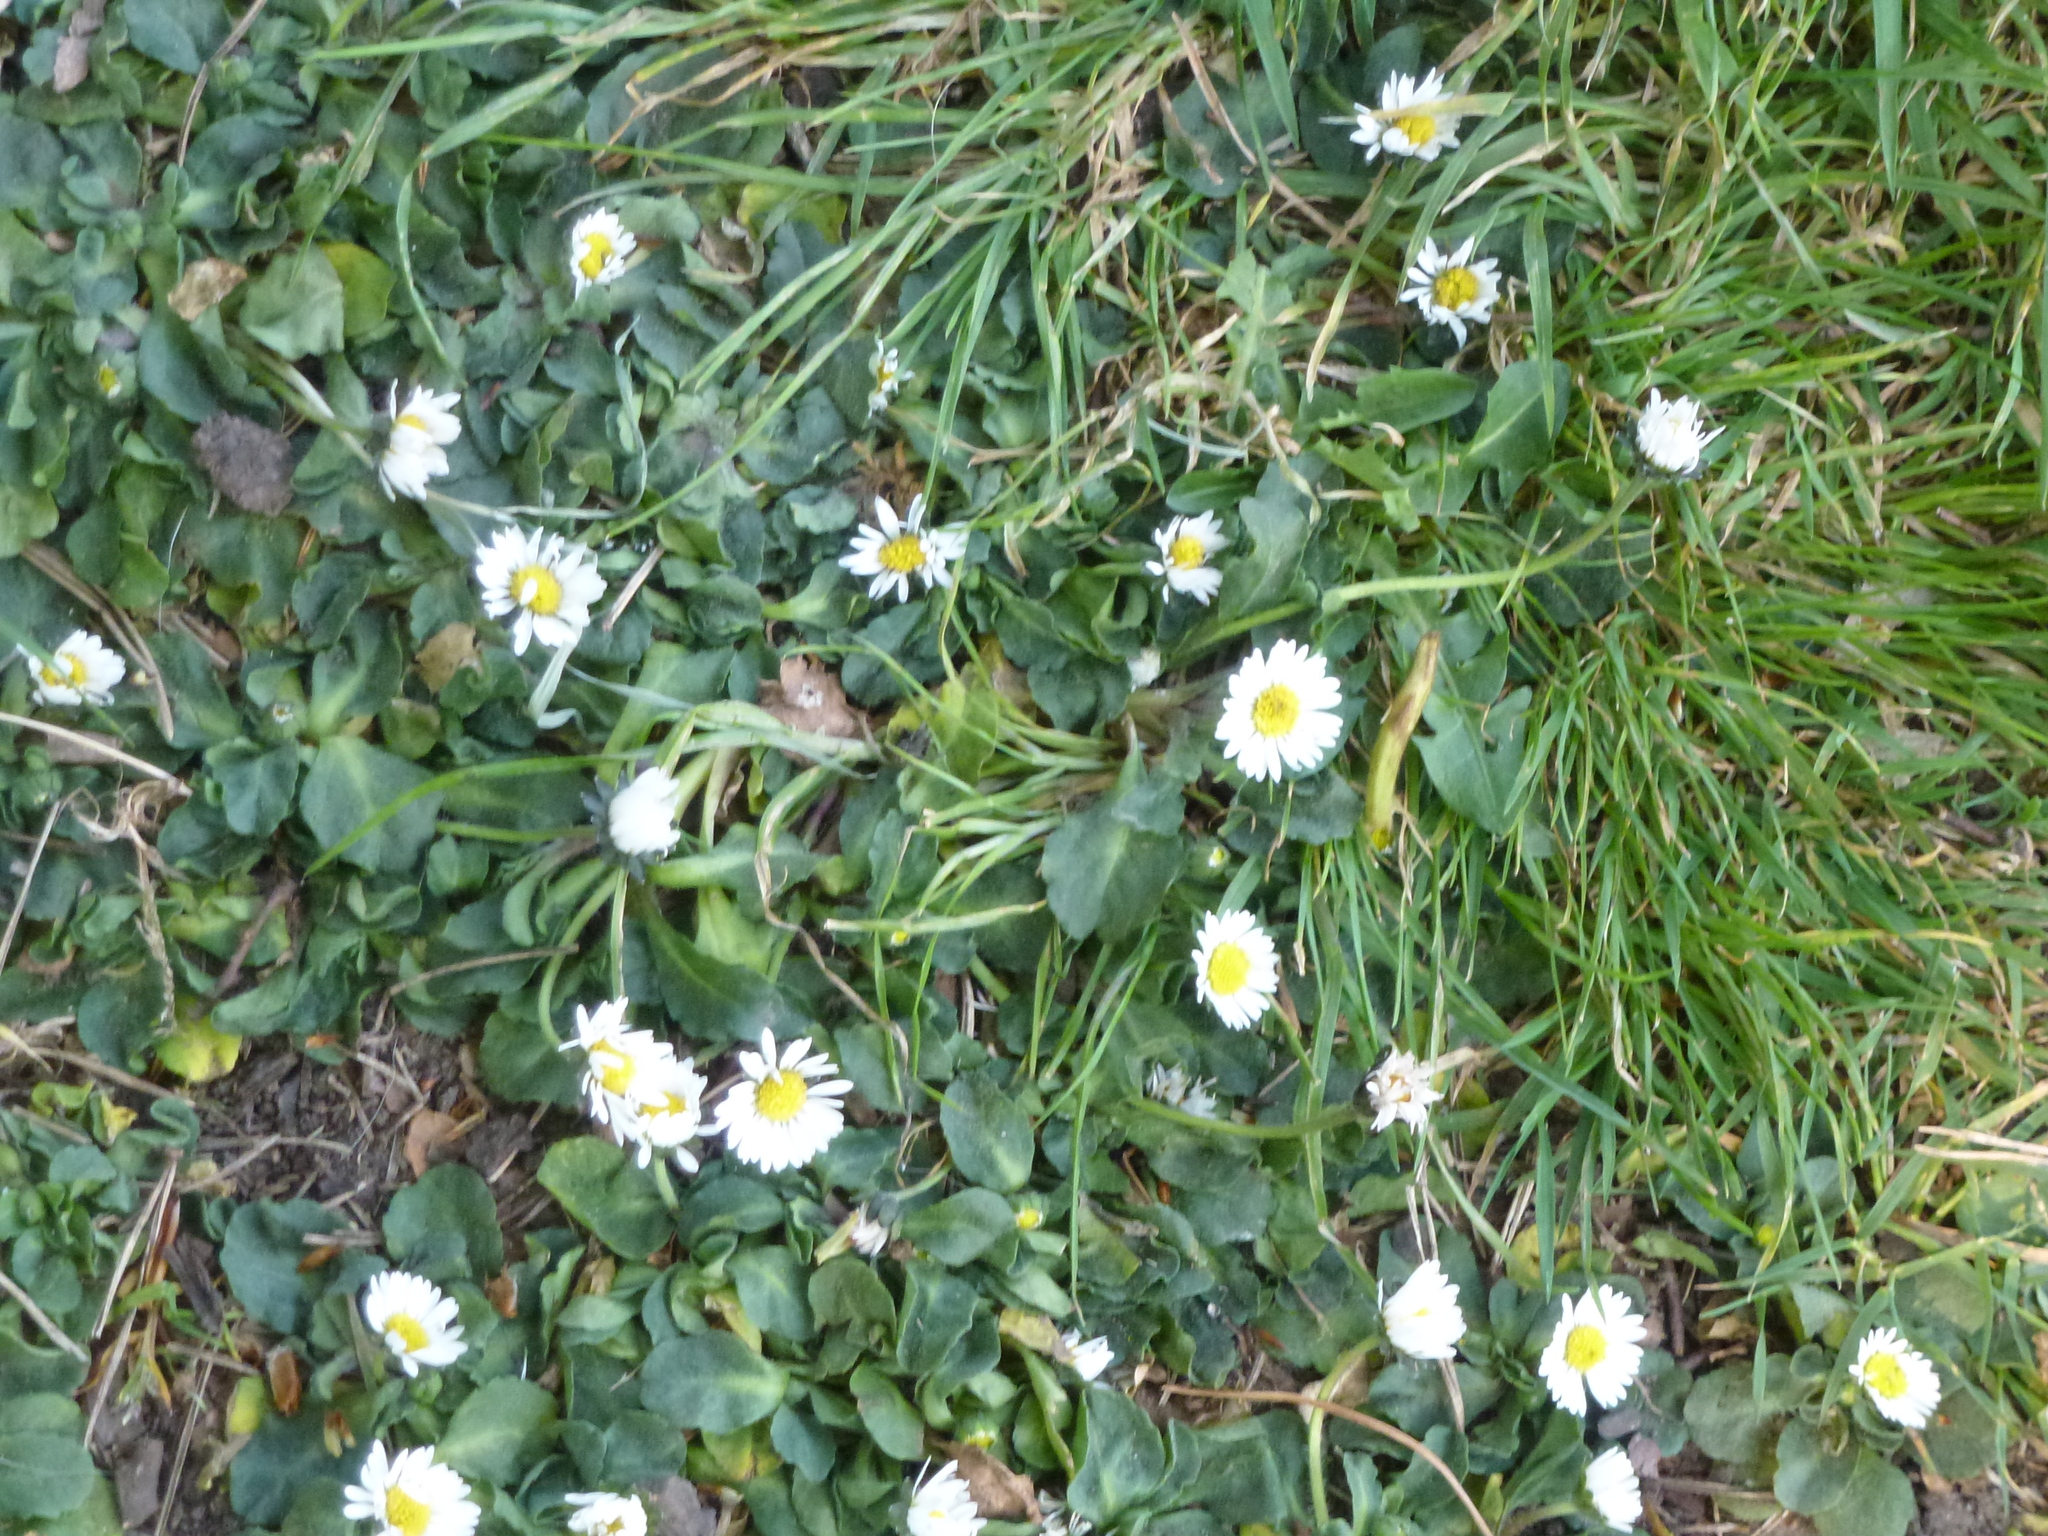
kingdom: Plantae
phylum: Tracheophyta
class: Magnoliopsida
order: Asterales
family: Asteraceae
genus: Bellis
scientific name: Bellis perennis
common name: Lawndaisy
